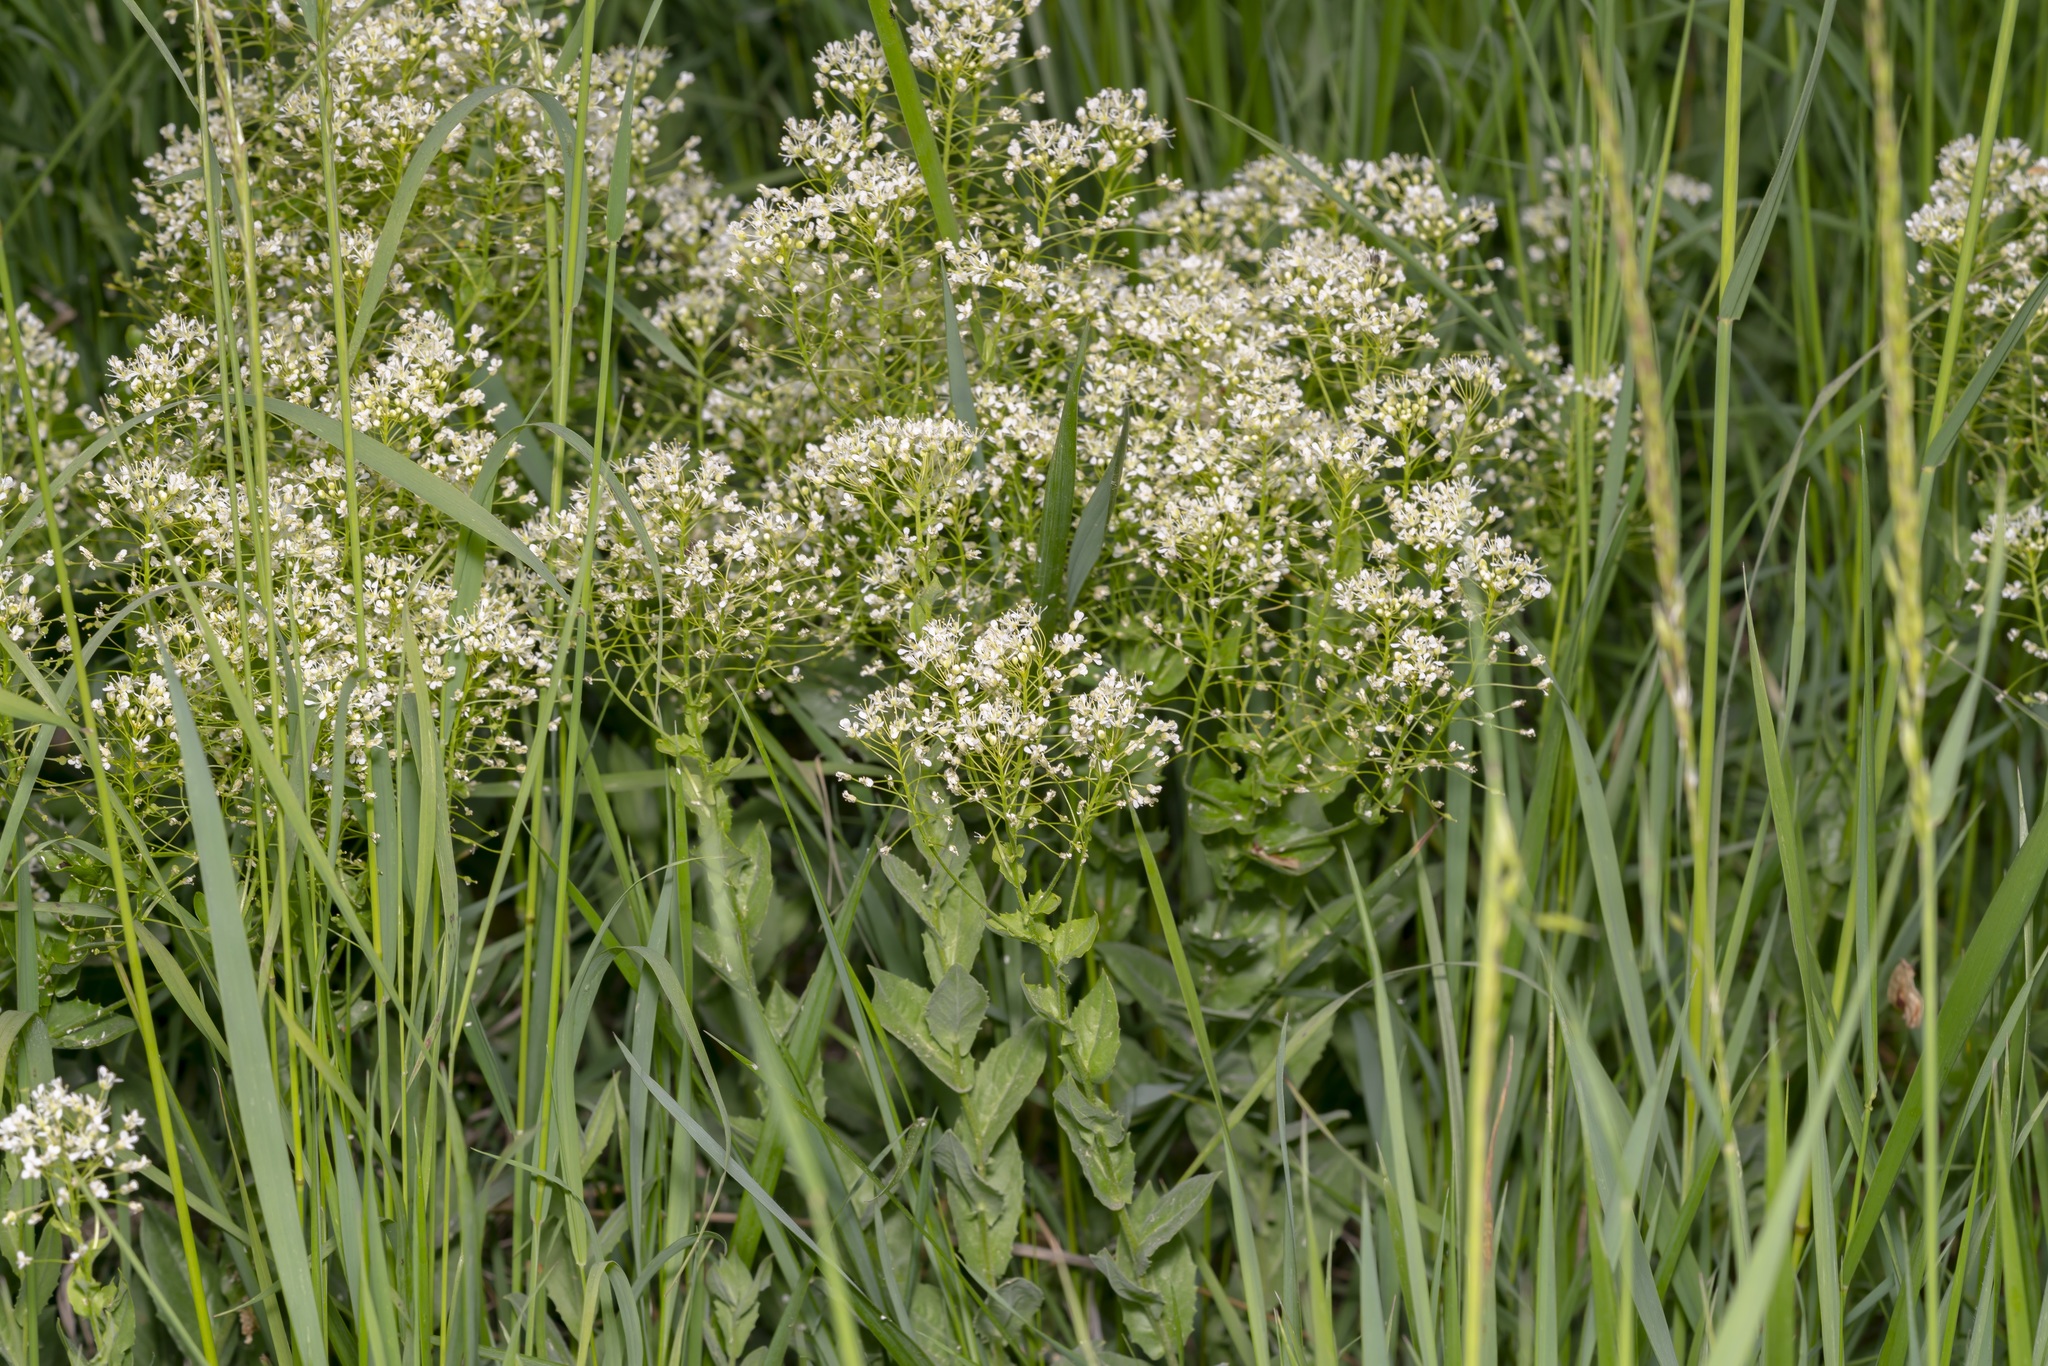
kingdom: Plantae
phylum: Tracheophyta
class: Magnoliopsida
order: Brassicales
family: Brassicaceae
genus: Lepidium
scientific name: Lepidium draba
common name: Hoary cress
